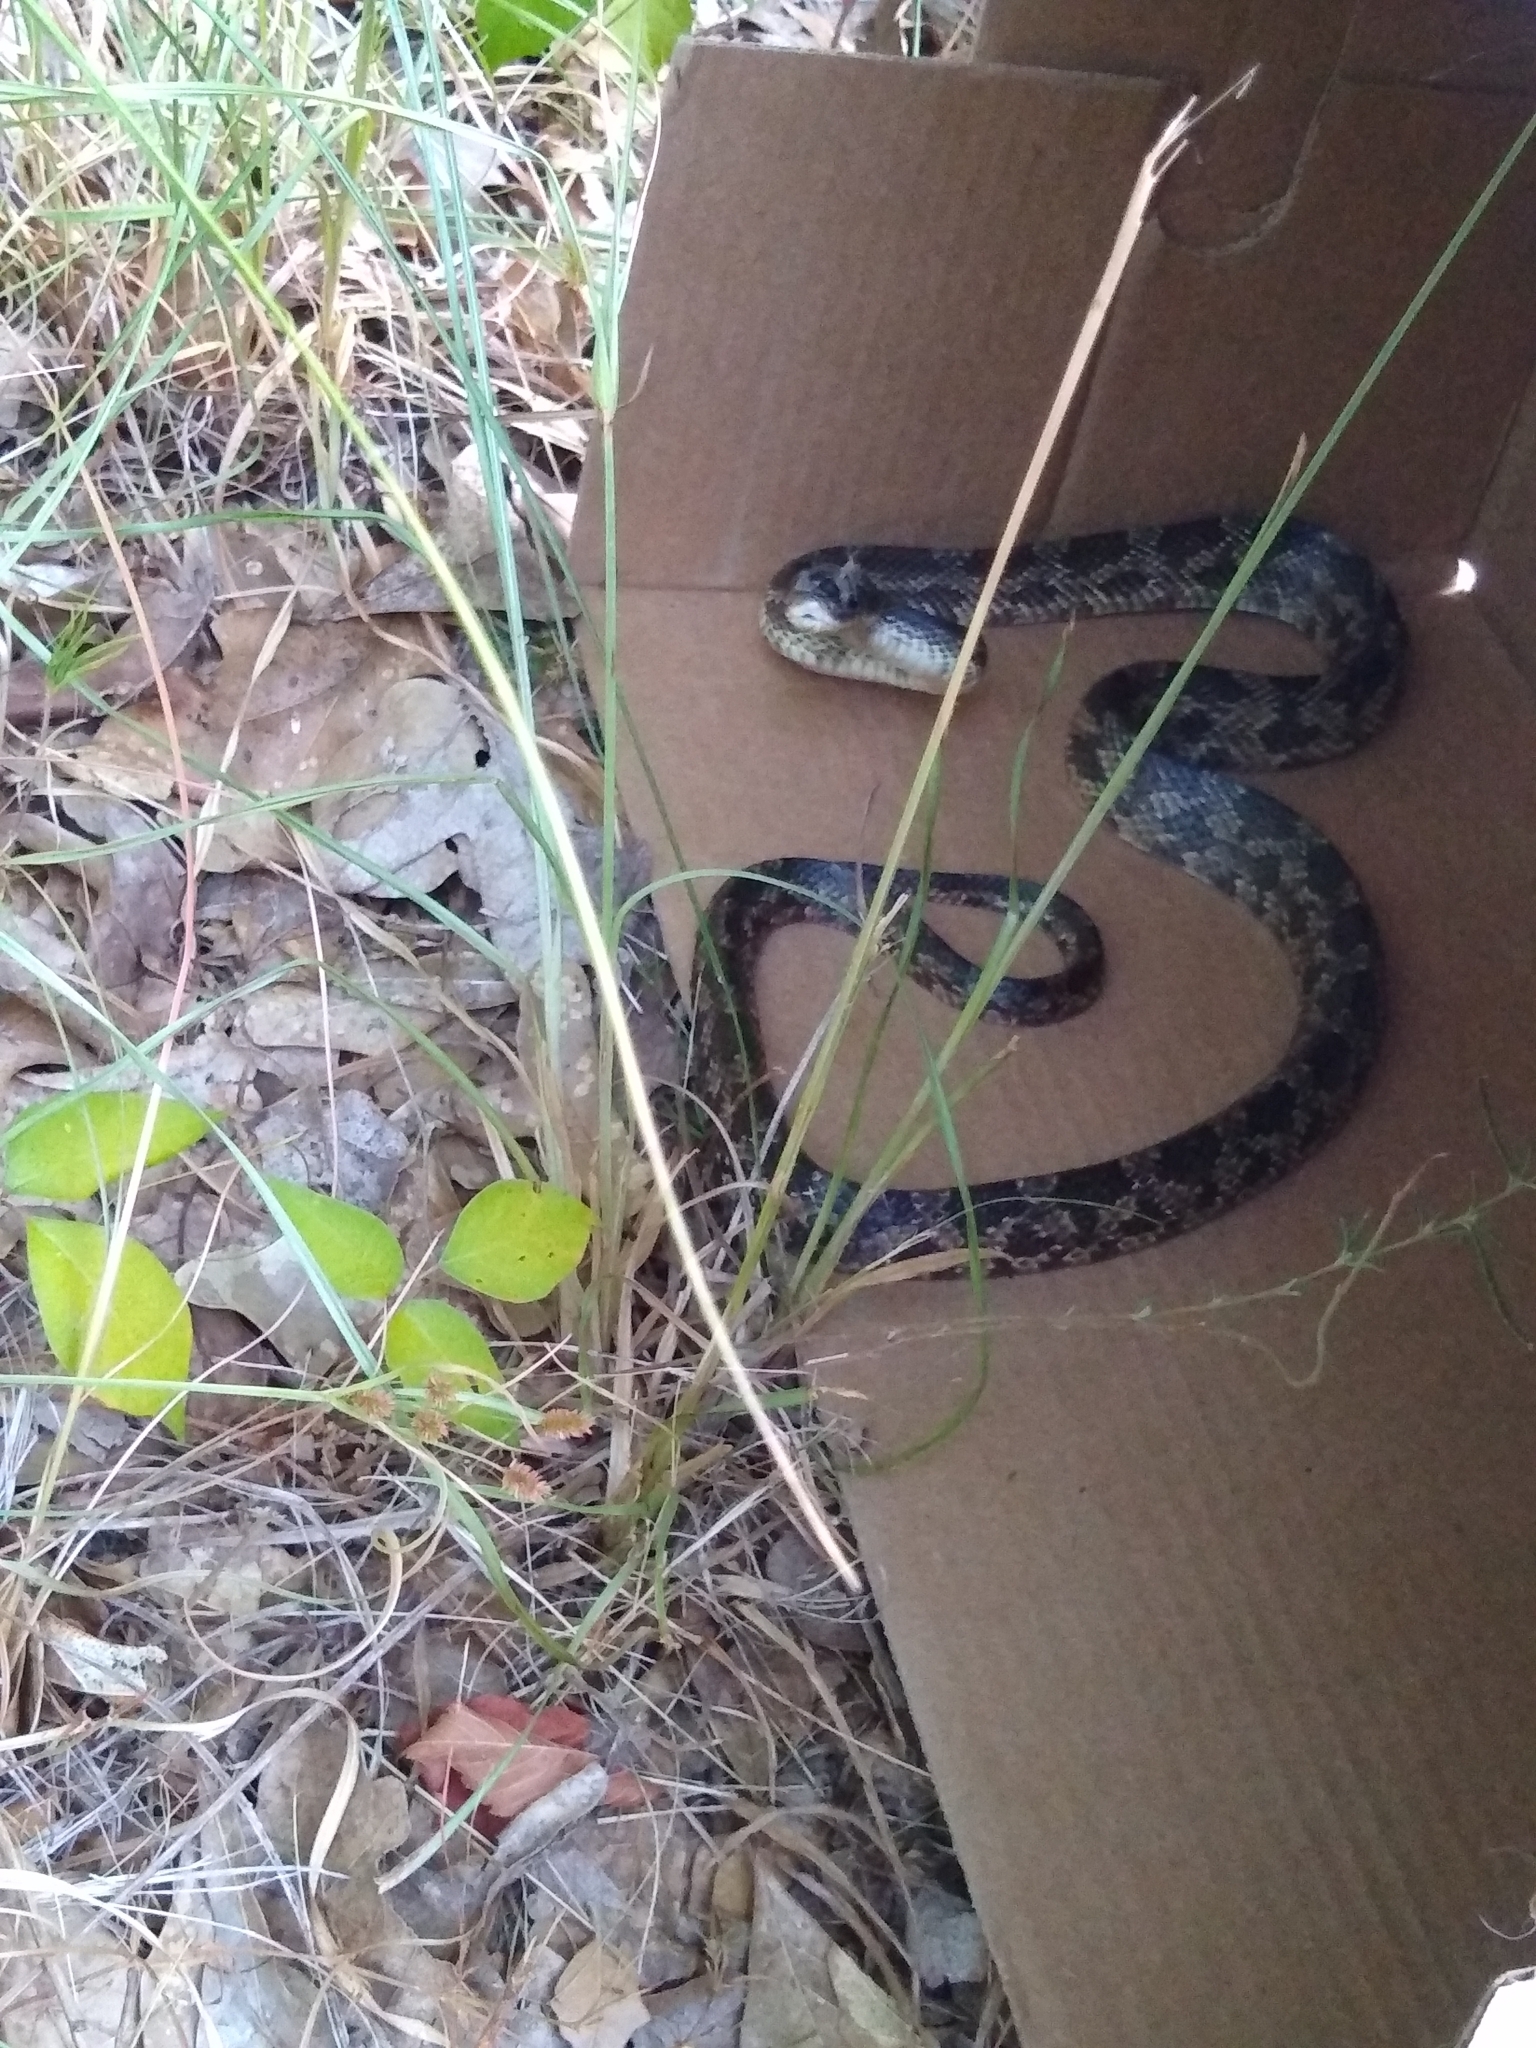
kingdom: Animalia
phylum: Chordata
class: Squamata
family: Colubridae
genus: Pantherophis
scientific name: Pantherophis obsoletus
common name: Black rat snake
